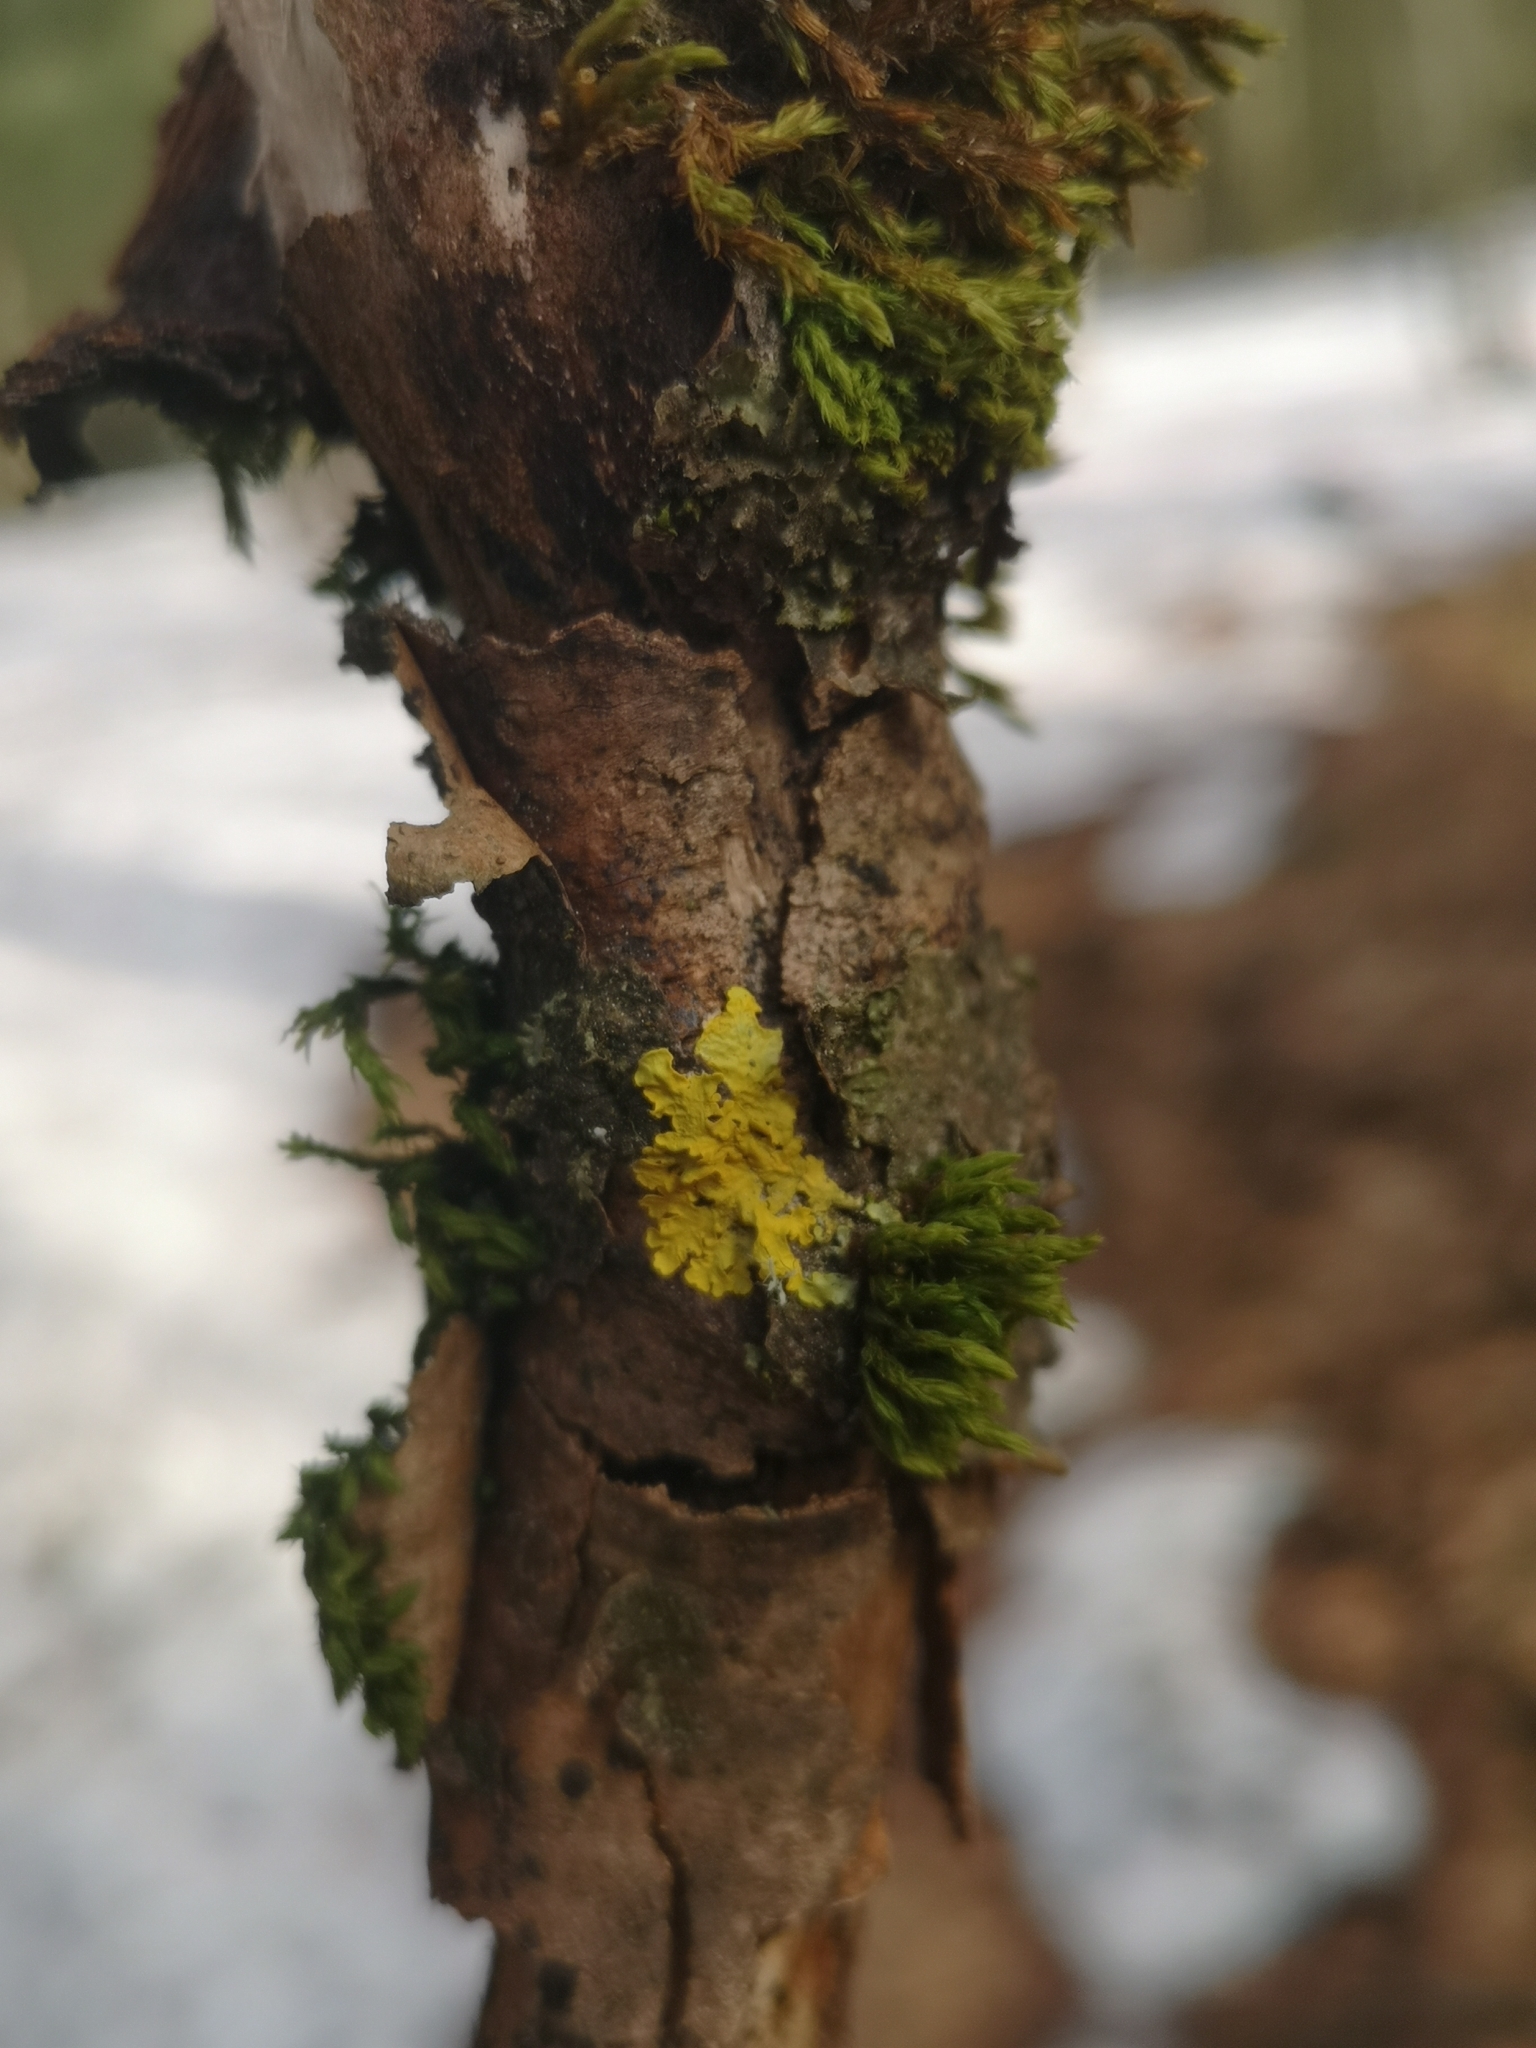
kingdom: Fungi
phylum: Ascomycota
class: Lecanoromycetes
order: Teloschistales
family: Teloschistaceae
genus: Xanthoria
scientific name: Xanthoria parietina
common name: Common orange lichen
